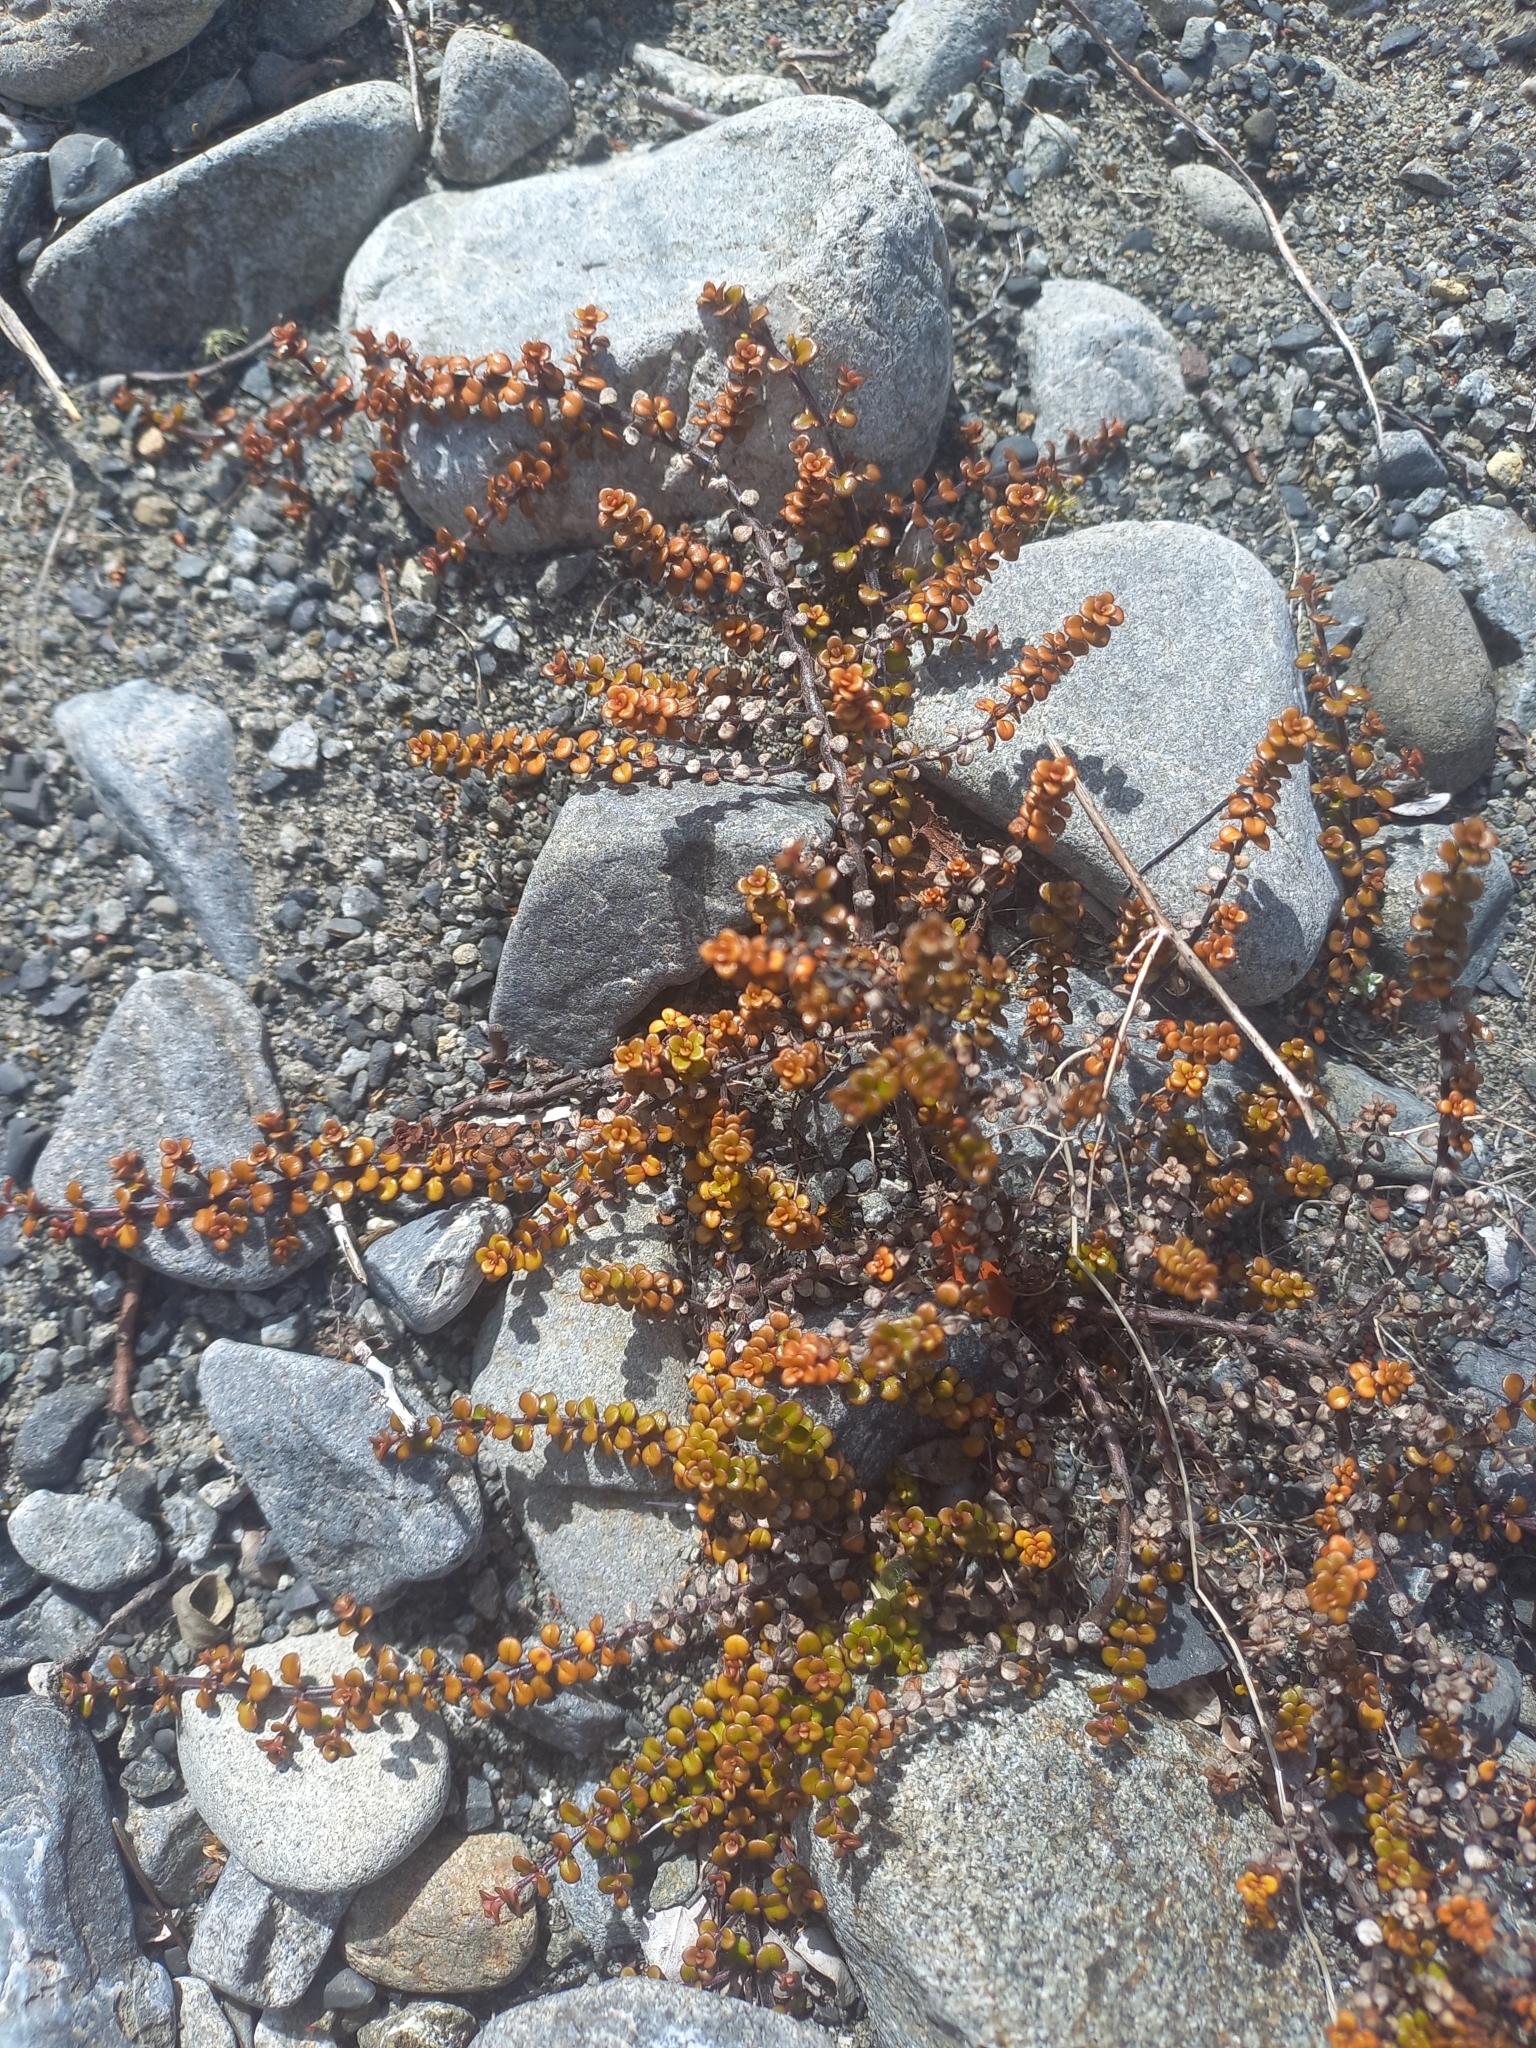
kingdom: Plantae
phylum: Tracheophyta
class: Magnoliopsida
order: Lamiales
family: Plantaginaceae
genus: Veronica
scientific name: Veronica decora
